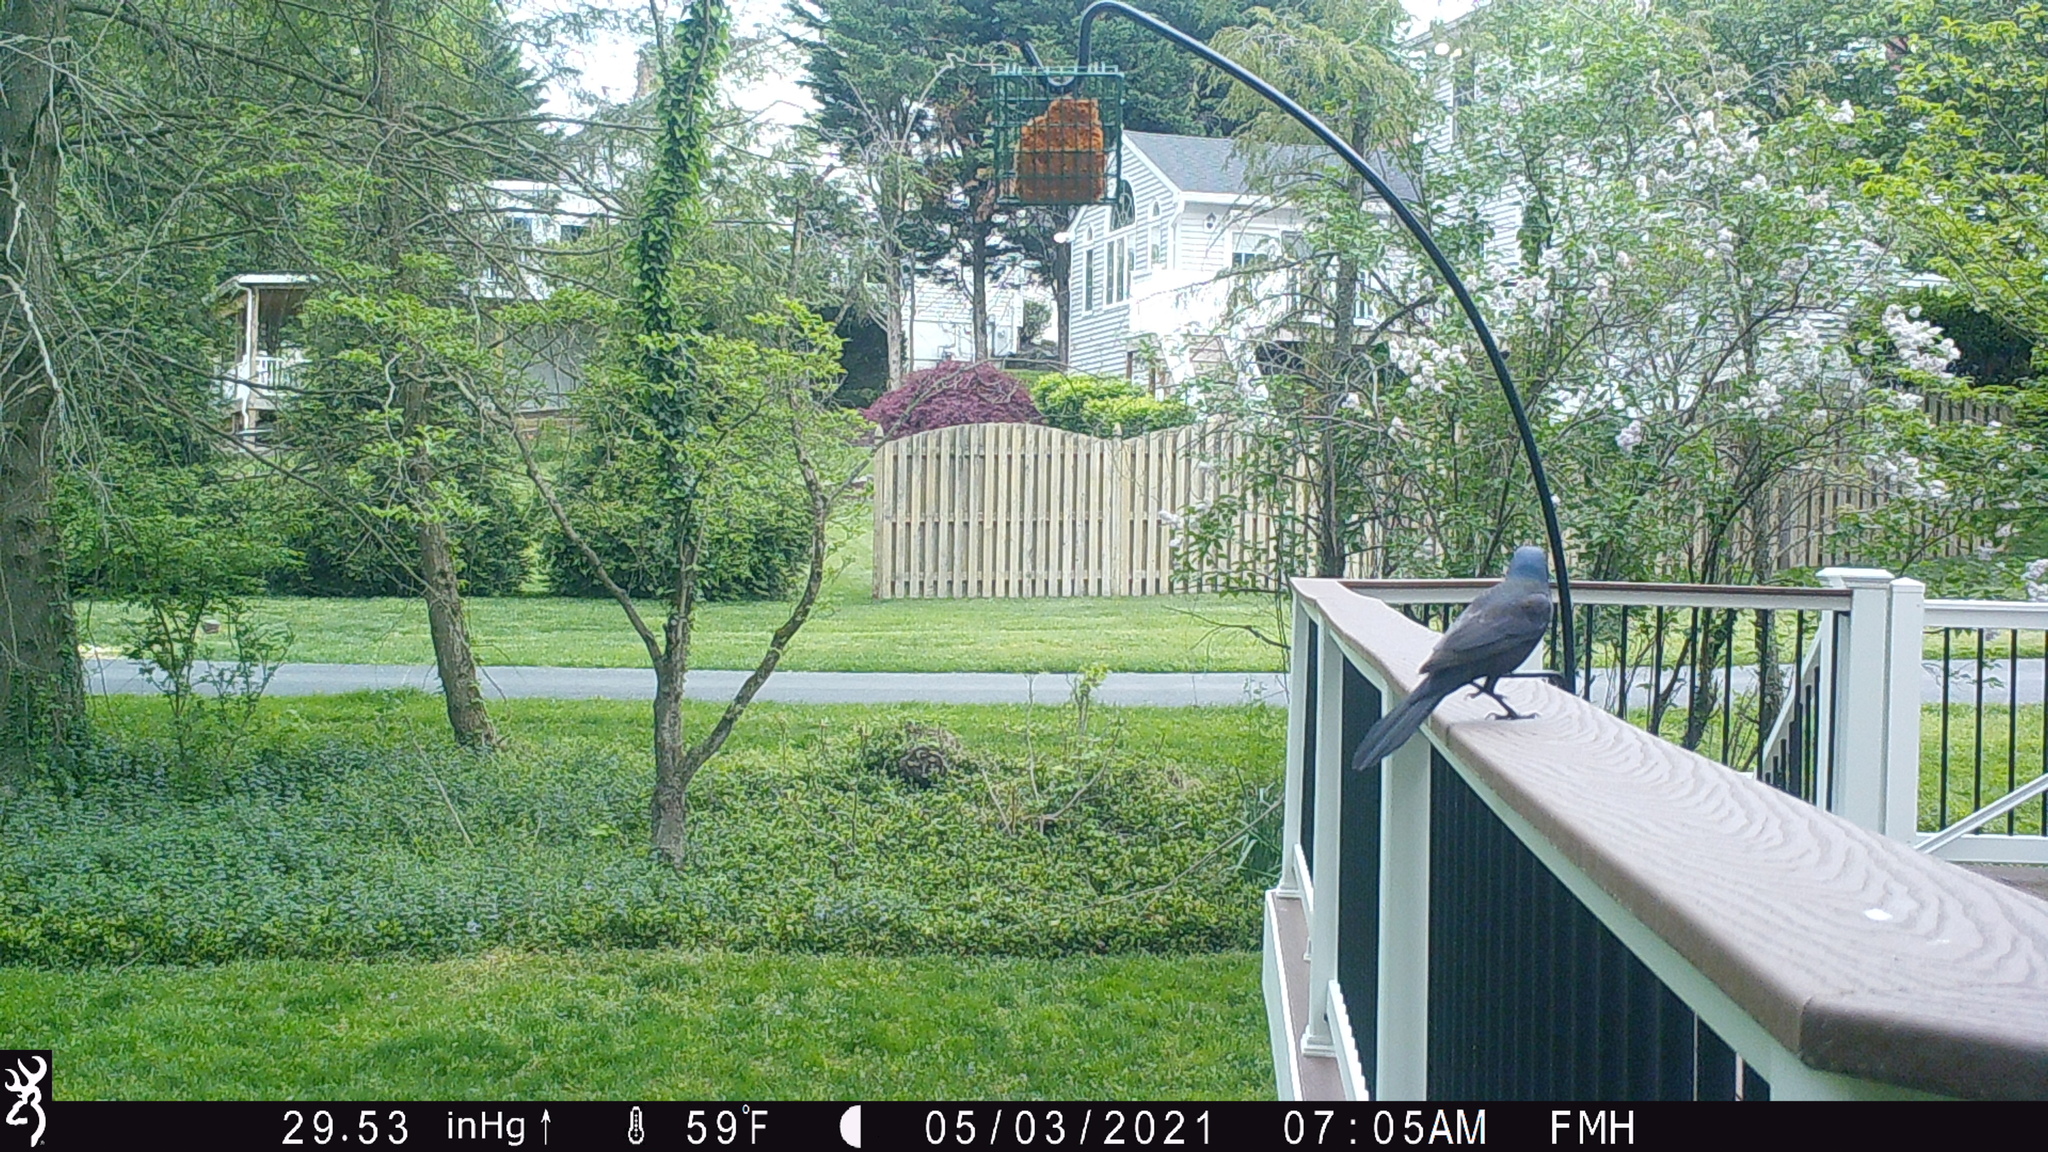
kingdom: Animalia
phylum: Chordata
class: Aves
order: Passeriformes
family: Icteridae
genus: Quiscalus
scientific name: Quiscalus quiscula
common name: Common grackle
